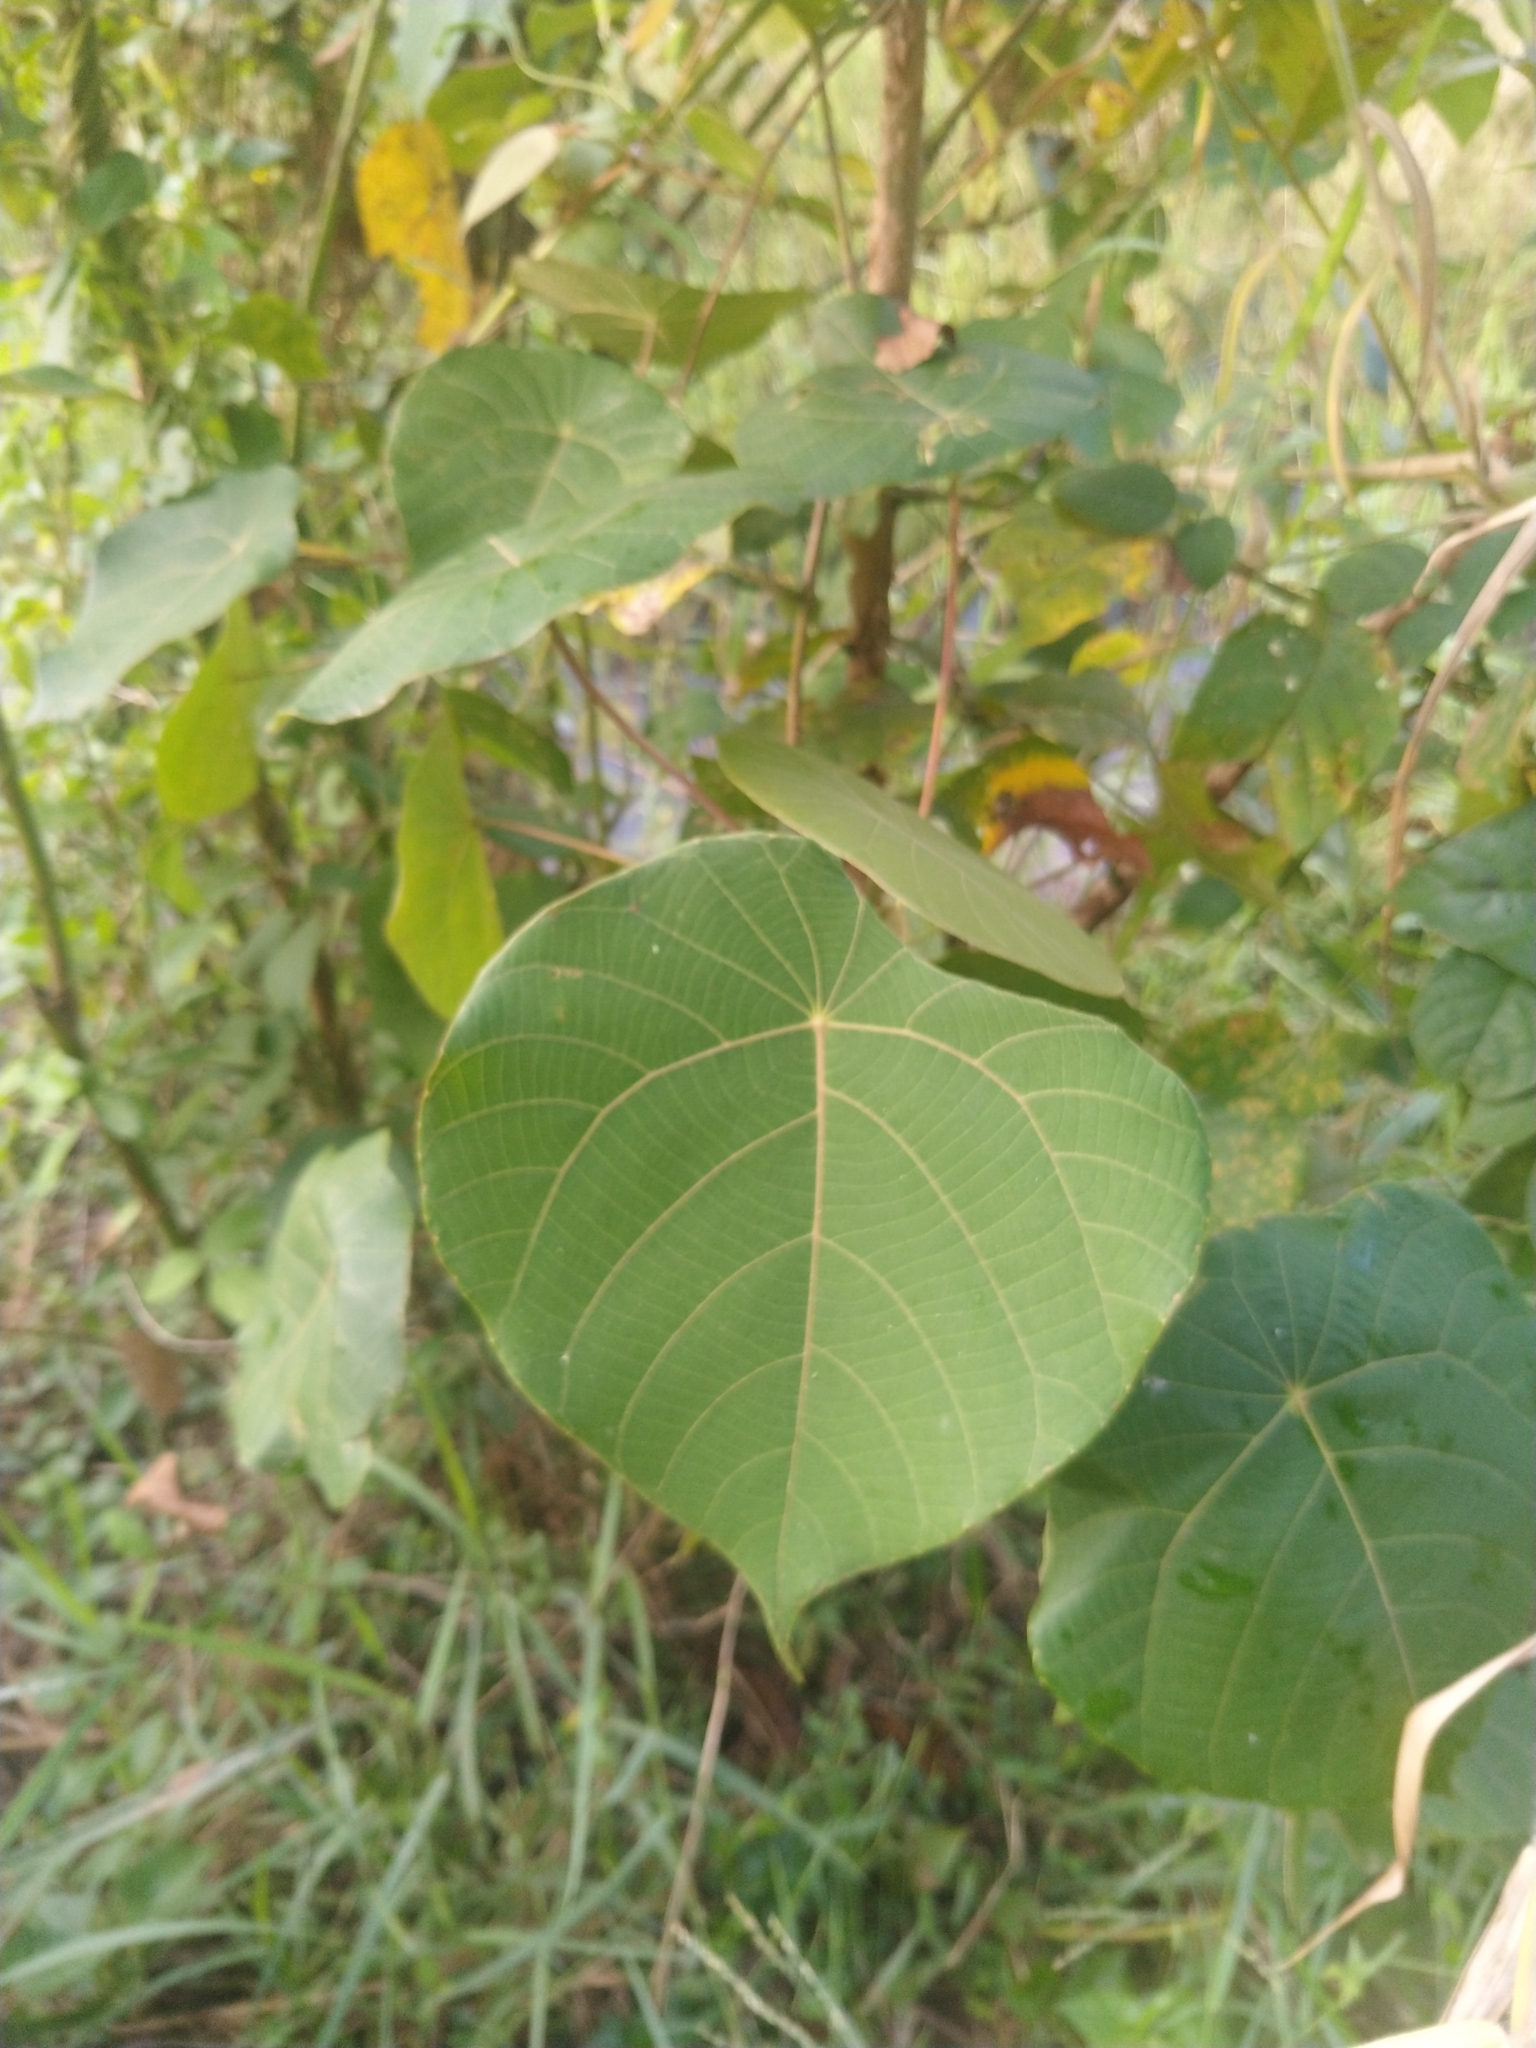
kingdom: Plantae
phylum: Tracheophyta
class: Magnoliopsida
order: Malpighiales
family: Euphorbiaceae
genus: Macaranga
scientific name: Macaranga peltata
